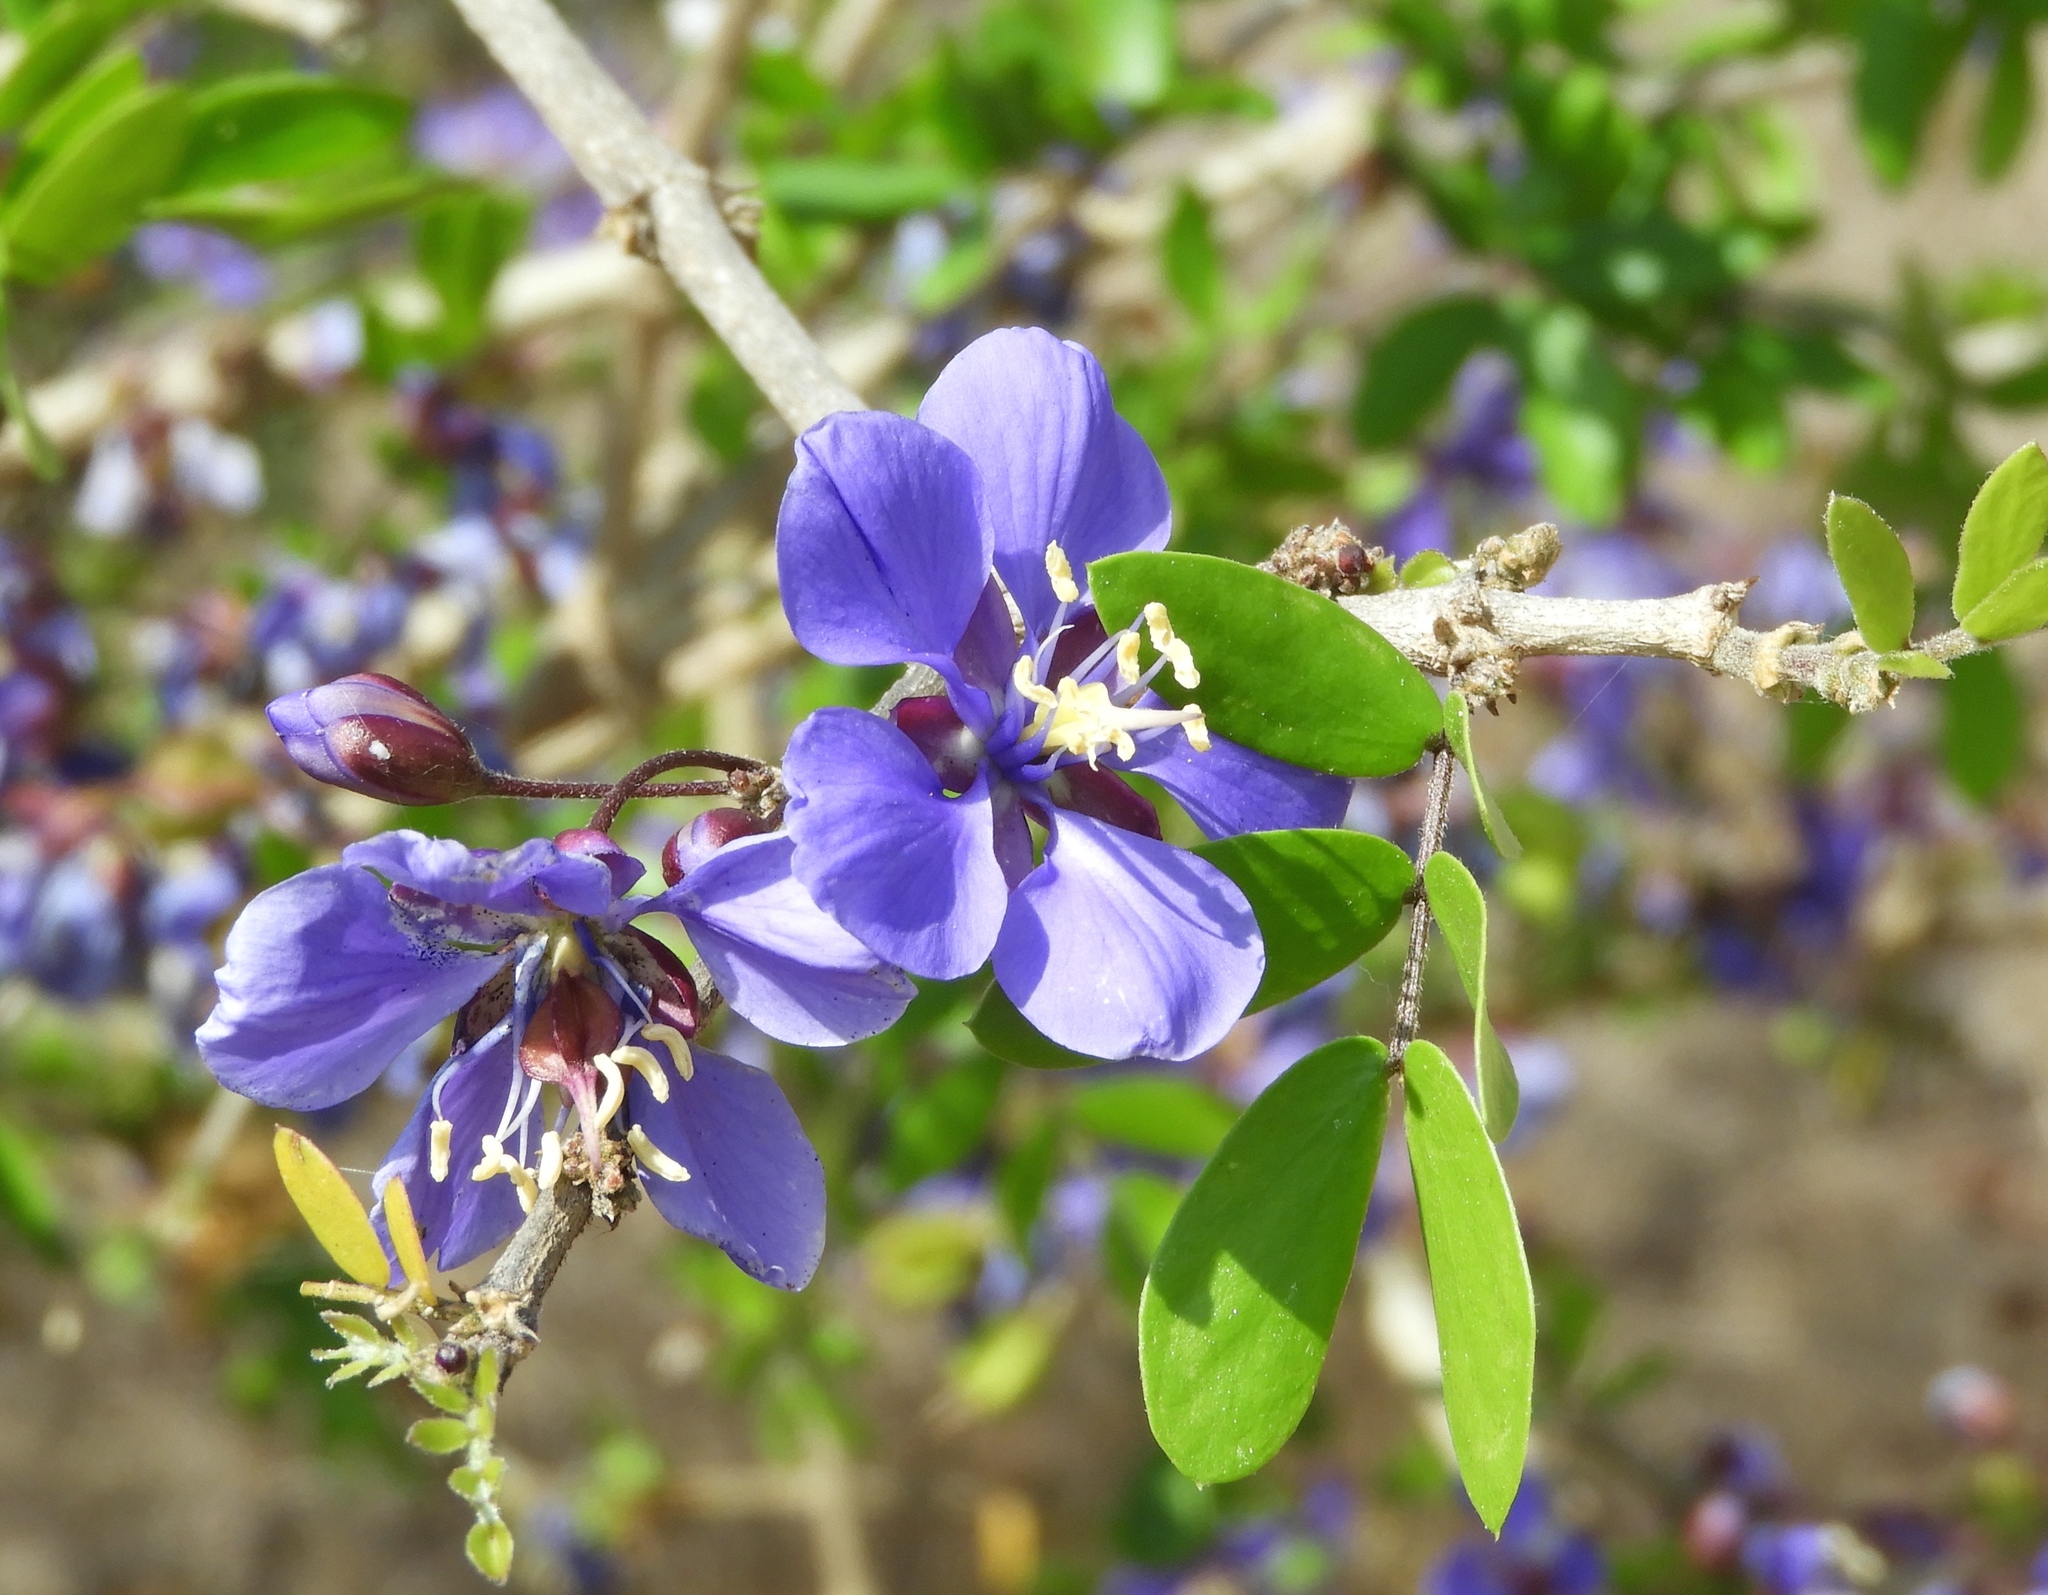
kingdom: Plantae
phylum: Tracheophyta
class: Magnoliopsida
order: Zygophyllales
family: Zygophyllaceae
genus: Guaiacum
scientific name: Guaiacum coulteri
